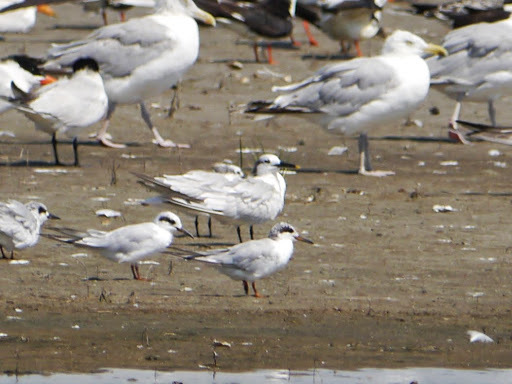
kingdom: Animalia
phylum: Chordata
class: Aves
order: Charadriiformes
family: Laridae
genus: Thalasseus
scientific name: Thalasseus sandvicensis
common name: Sandwich tern
